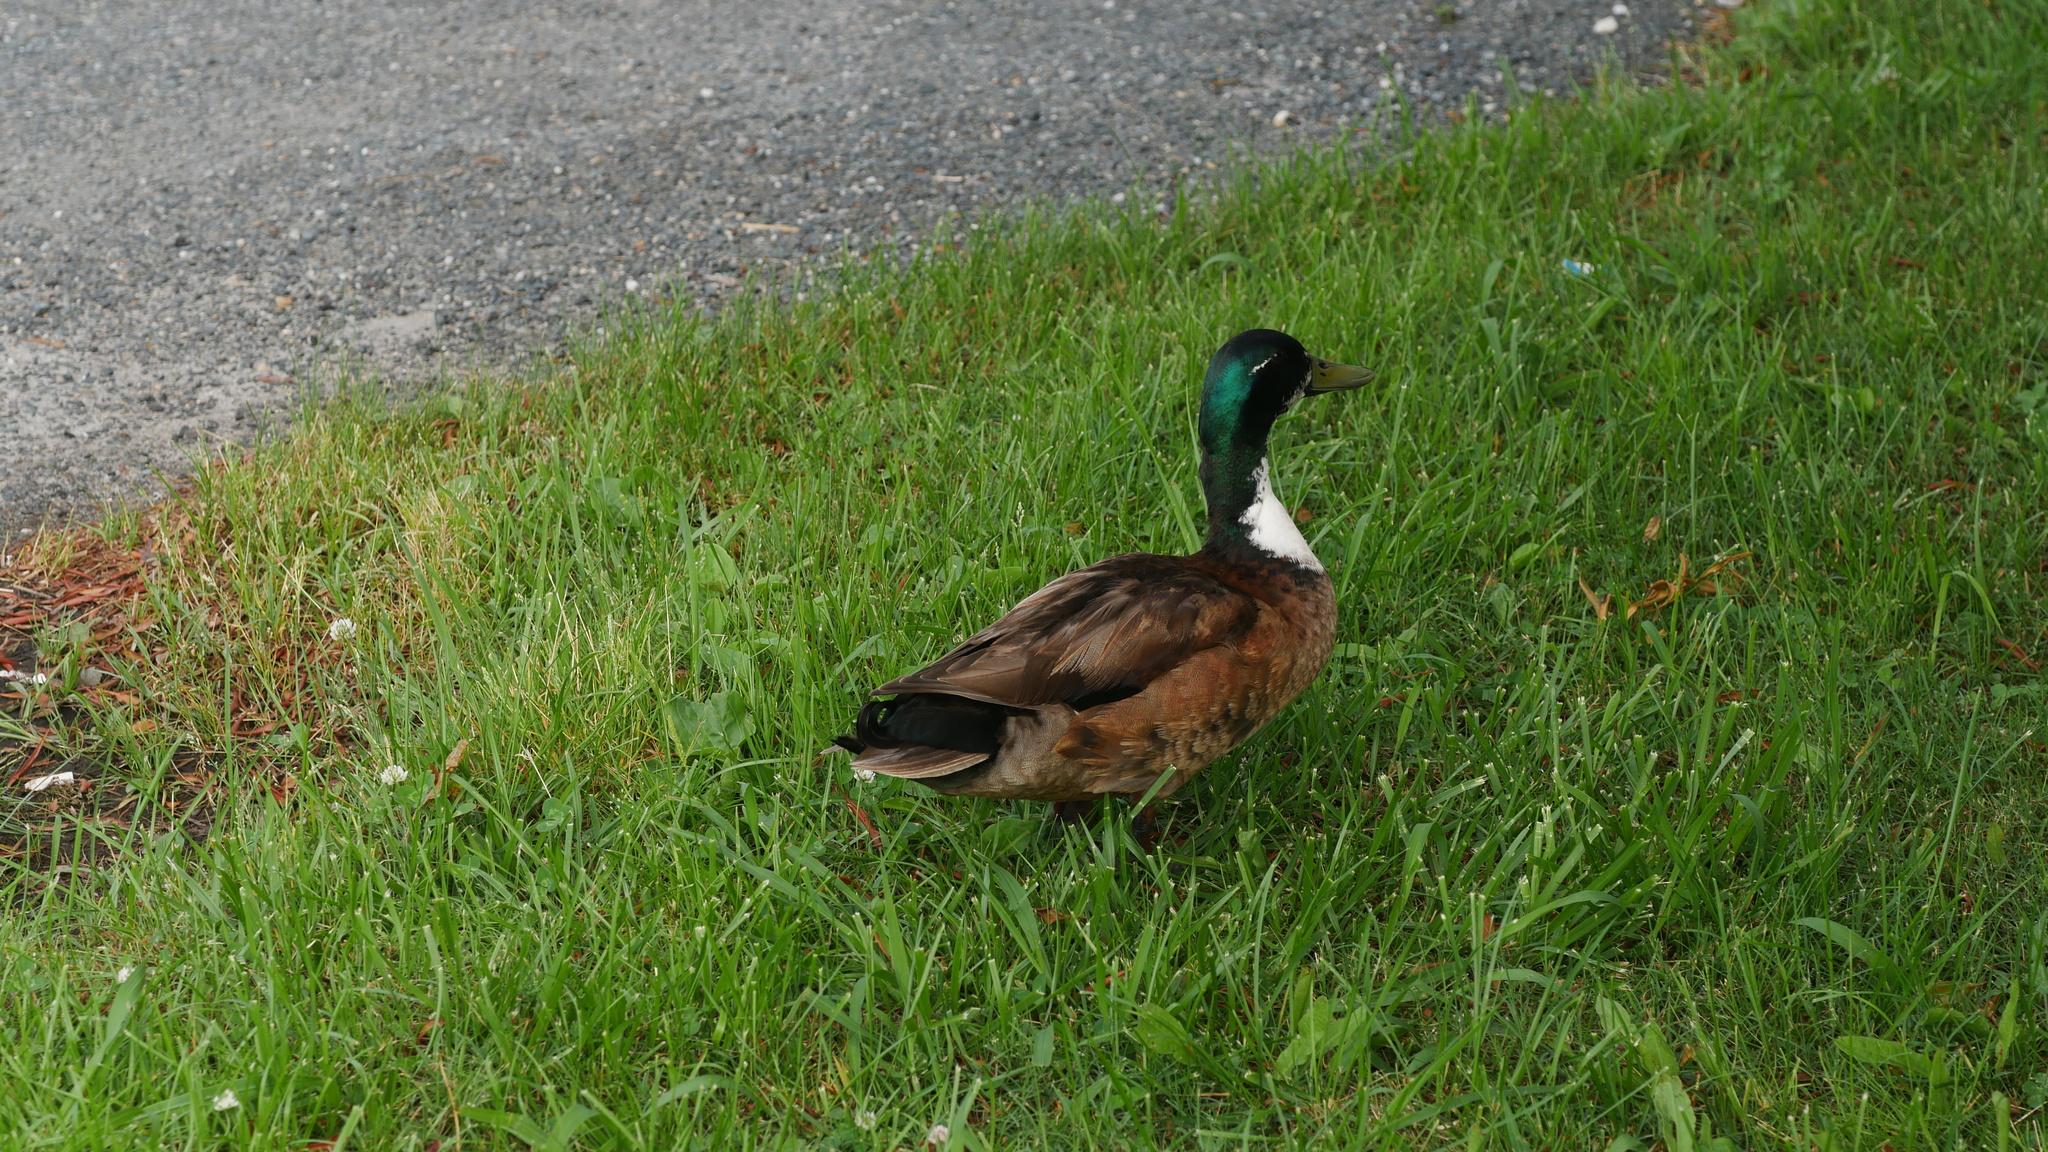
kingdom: Animalia
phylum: Chordata
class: Aves
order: Anseriformes
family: Anatidae
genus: Anas
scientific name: Anas platyrhynchos
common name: Mallard
